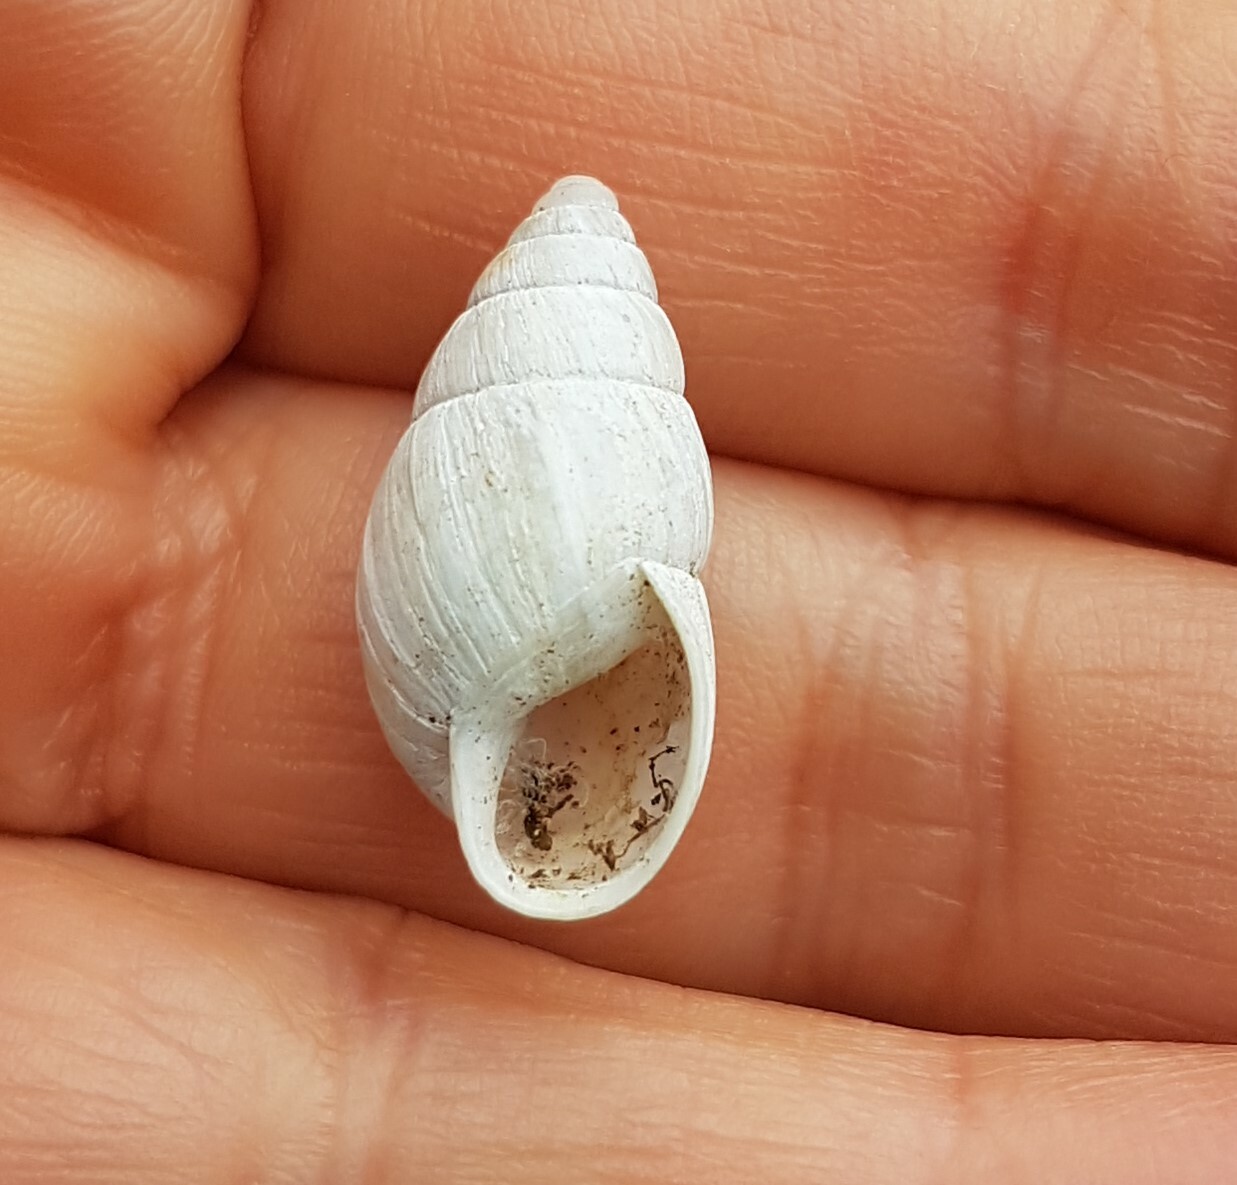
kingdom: Animalia
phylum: Mollusca
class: Gastropoda
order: Stylommatophora
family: Enidae
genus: Zebrina
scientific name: Zebrina detrita
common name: Large bulin
